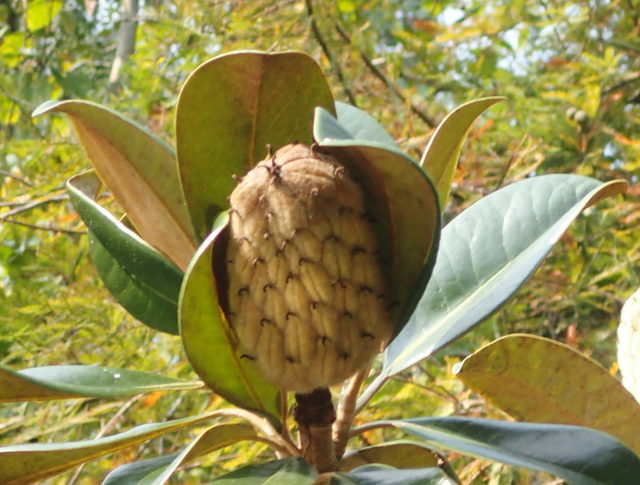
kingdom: Plantae
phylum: Tracheophyta
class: Magnoliopsida
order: Magnoliales
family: Magnoliaceae
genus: Magnolia
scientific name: Magnolia grandiflora
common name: Southern magnolia
